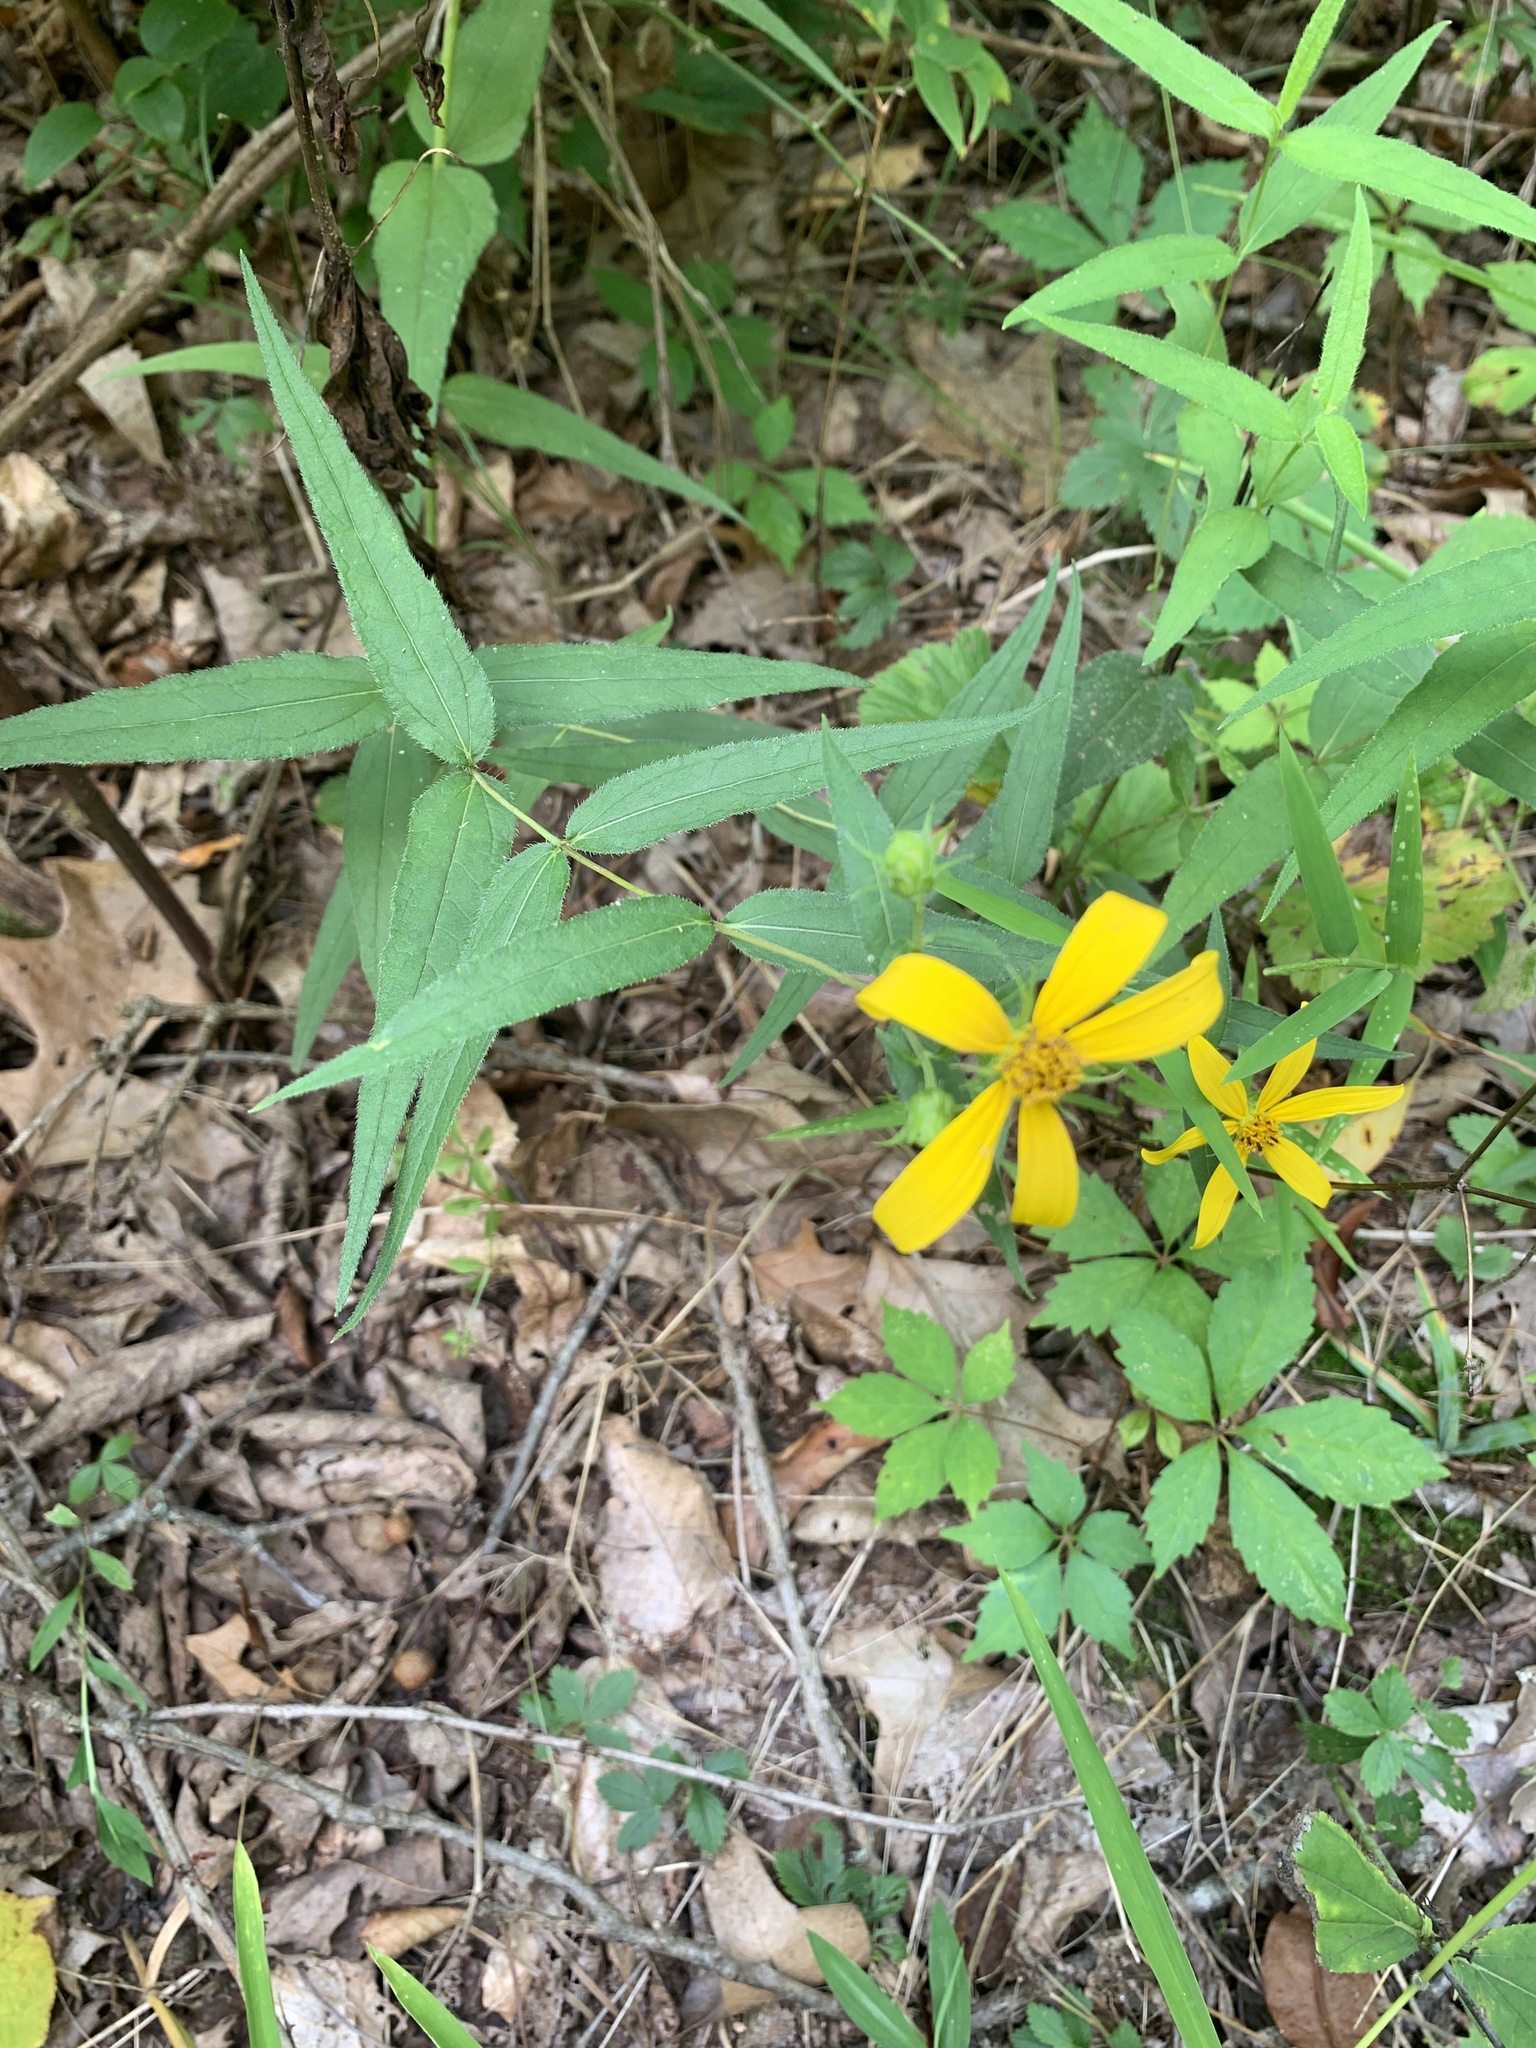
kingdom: Plantae
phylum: Tracheophyta
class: Magnoliopsida
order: Asterales
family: Asteraceae
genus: Helianthus
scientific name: Helianthus divaricatus
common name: Divergent sunflower
